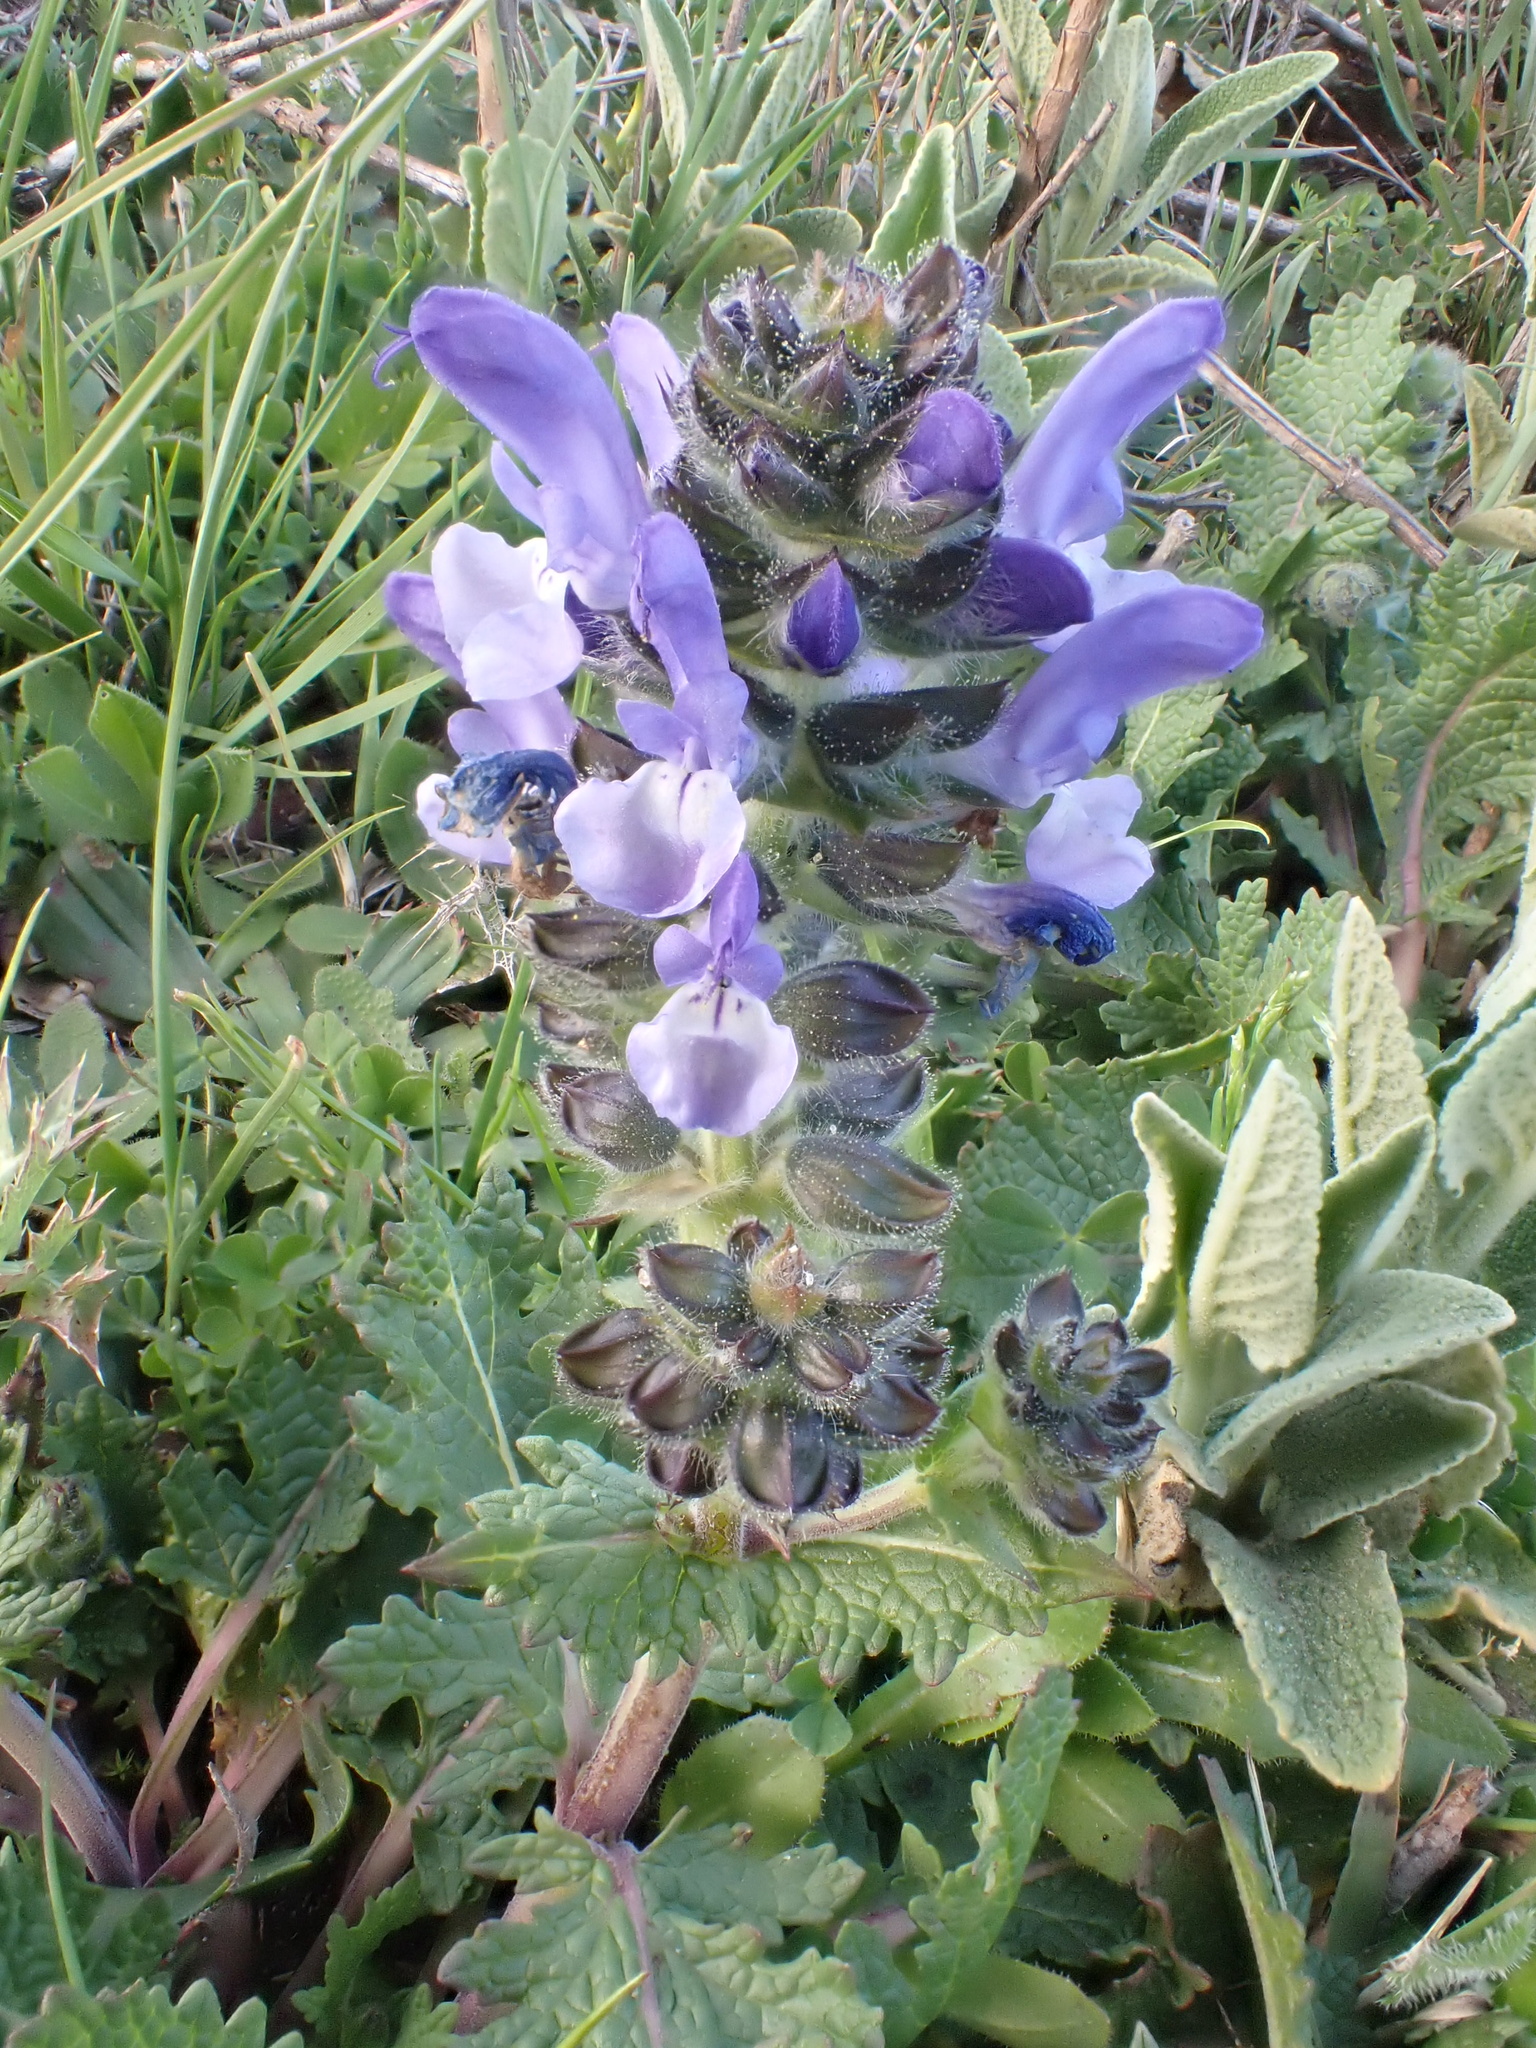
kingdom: Plantae
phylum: Tracheophyta
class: Magnoliopsida
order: Lamiales
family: Lamiaceae
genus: Salvia
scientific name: Salvia clandestina
